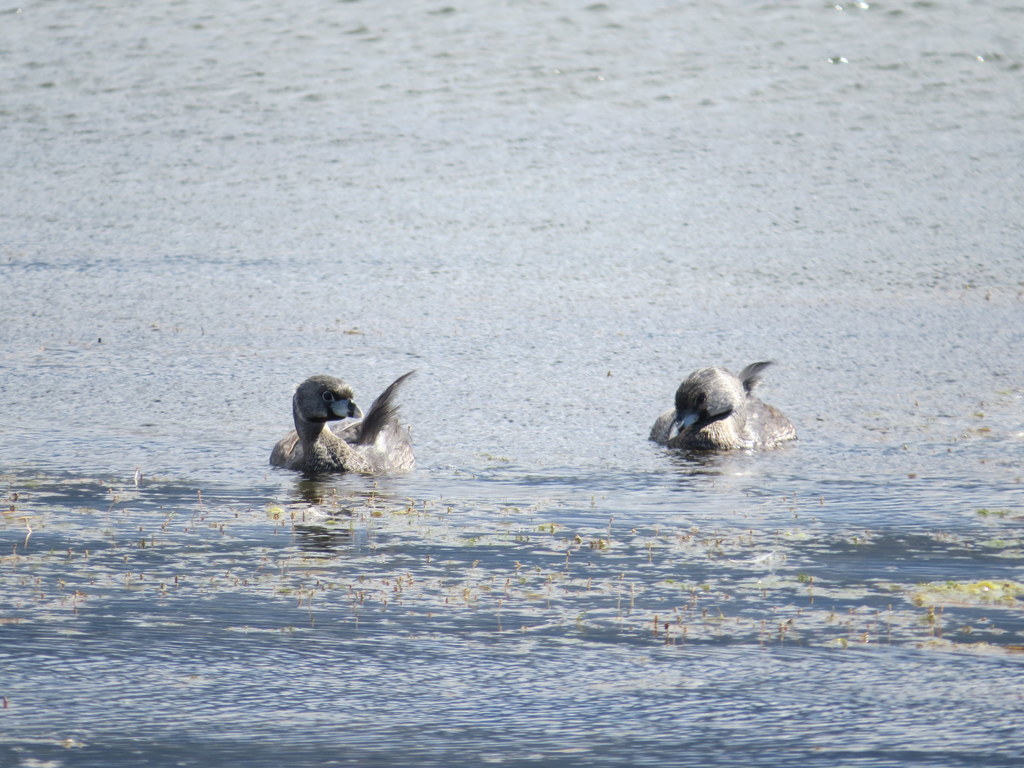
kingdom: Animalia
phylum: Chordata
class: Aves
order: Podicipediformes
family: Podicipedidae
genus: Podilymbus
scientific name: Podilymbus podiceps
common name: Pied-billed grebe
